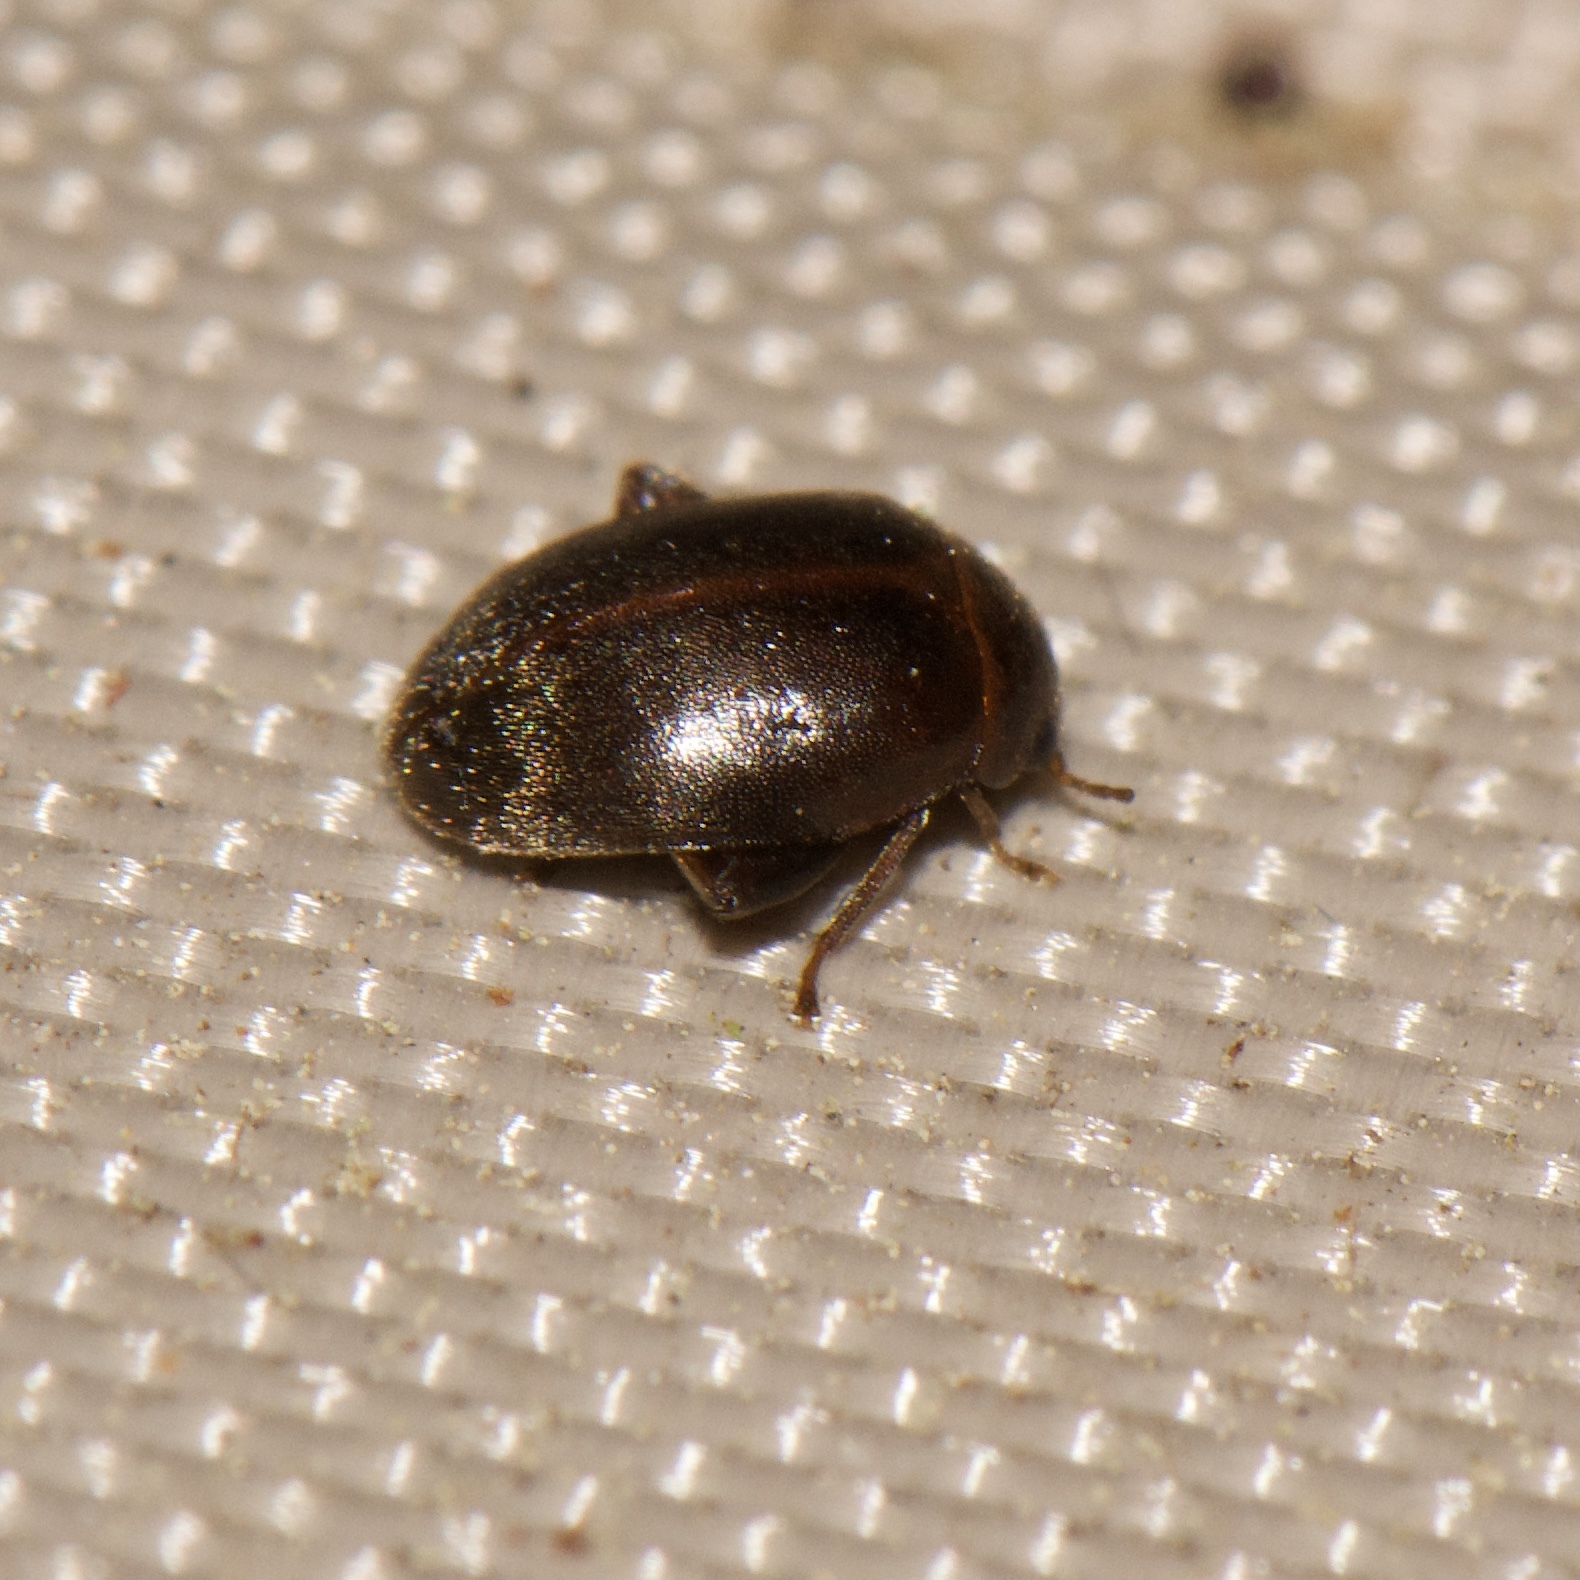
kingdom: Animalia
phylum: Arthropoda
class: Insecta
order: Coleoptera
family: Scirtidae
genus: Scirtes
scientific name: Scirtes tibialis
